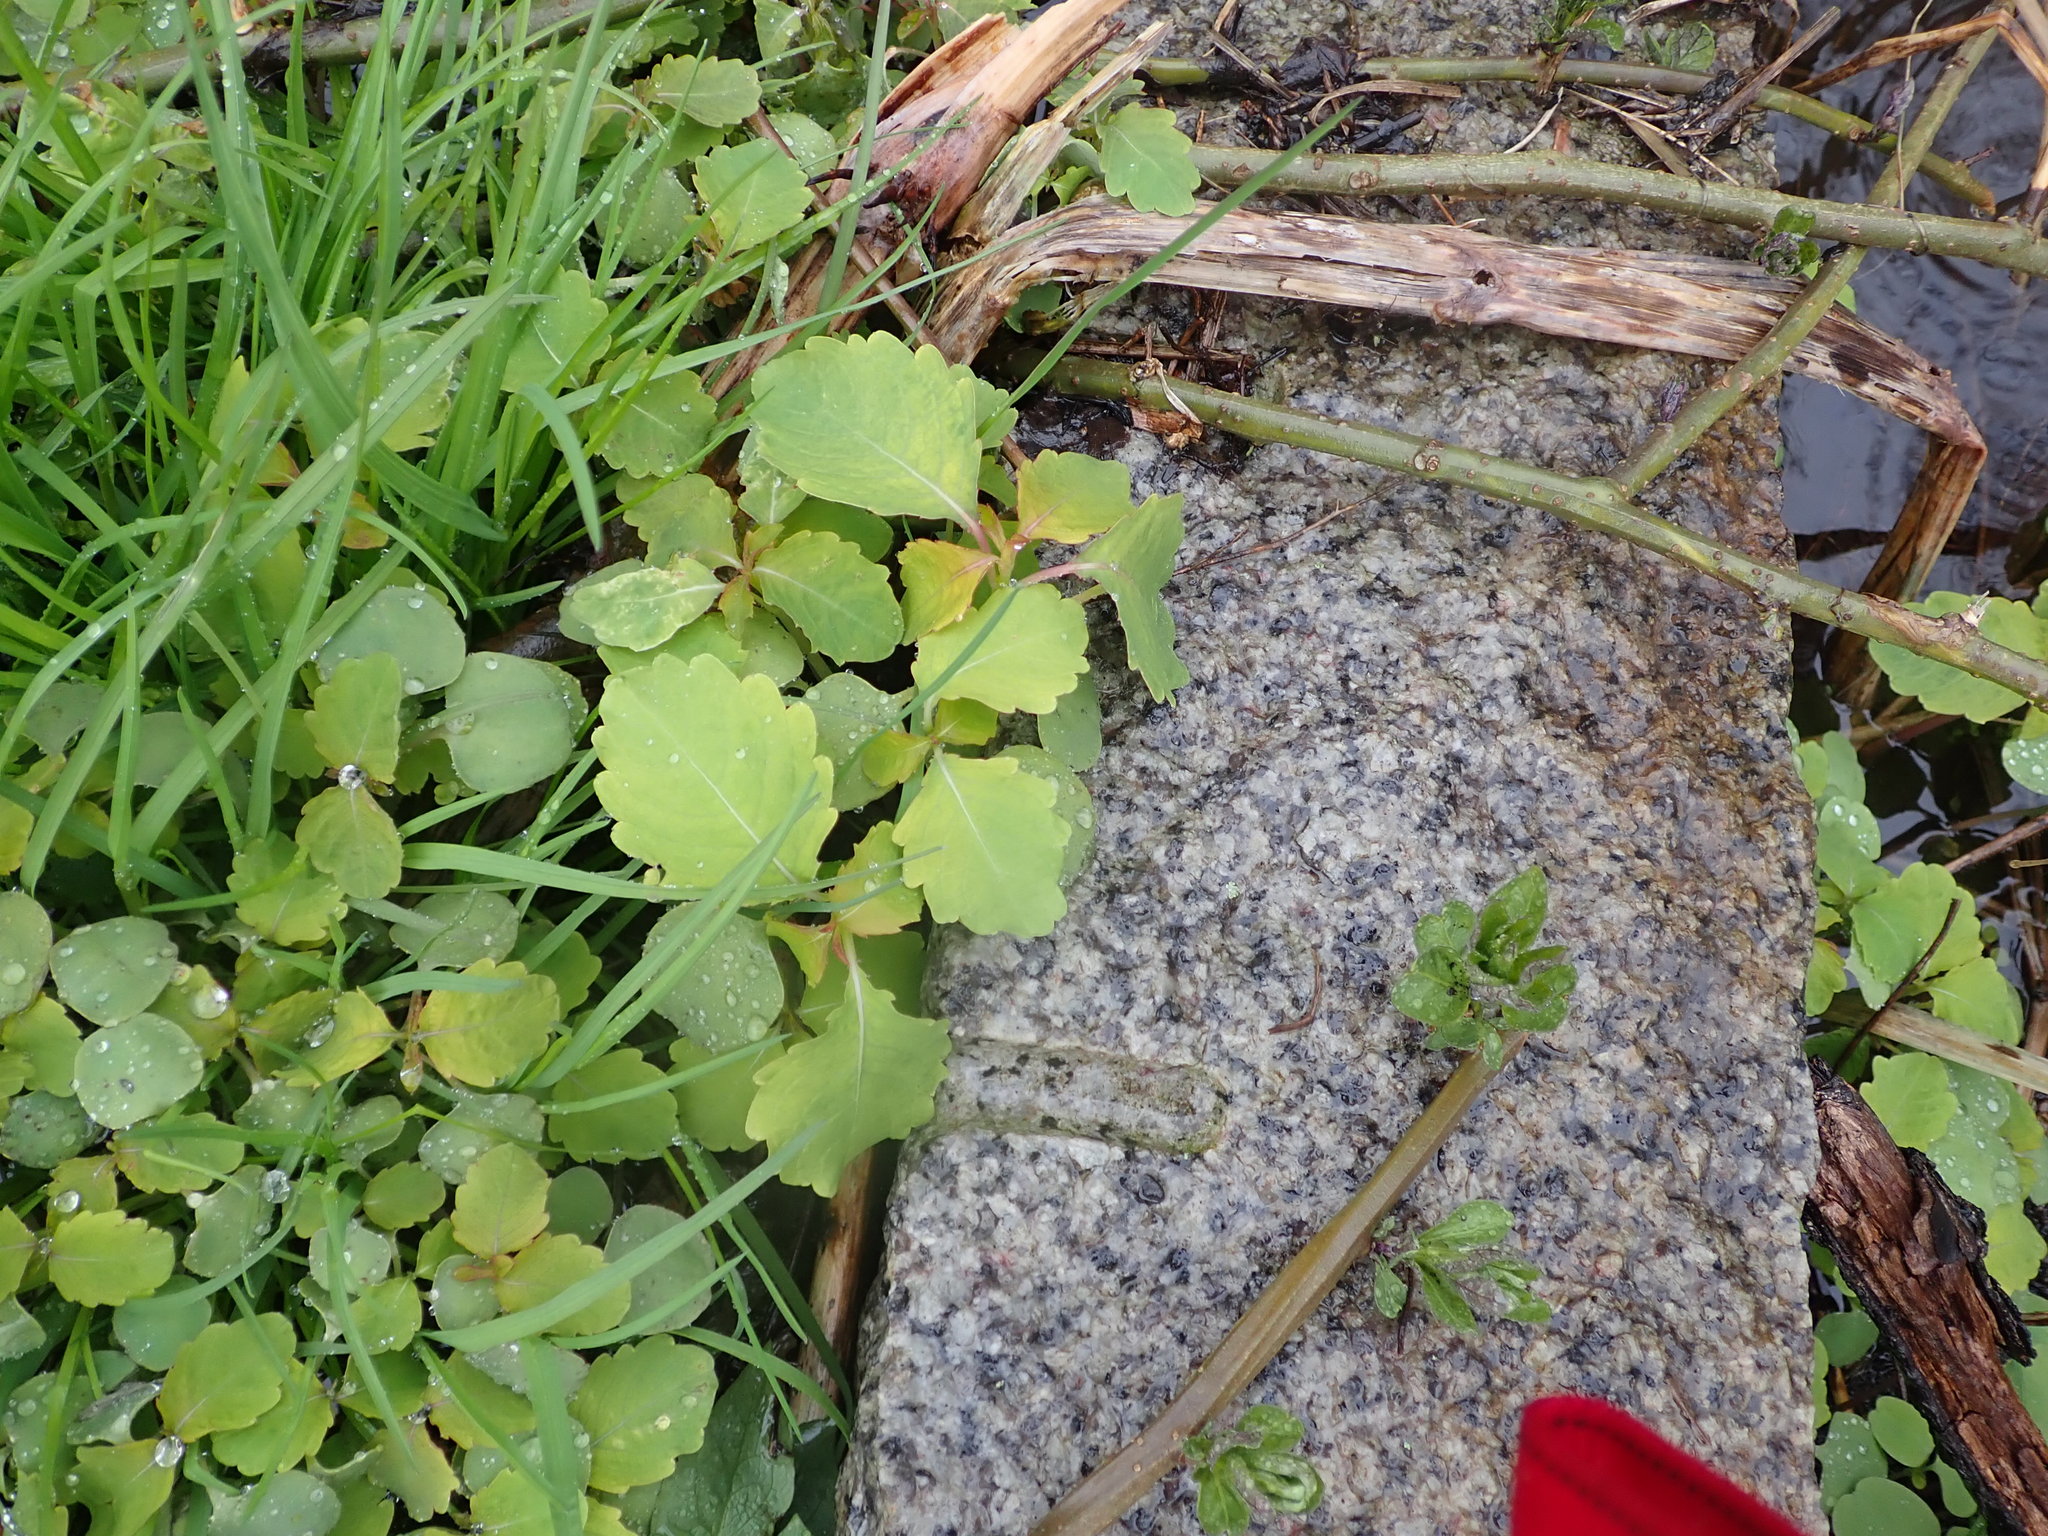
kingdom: Plantae
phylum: Tracheophyta
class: Magnoliopsida
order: Ericales
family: Balsaminaceae
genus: Impatiens
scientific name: Impatiens capensis
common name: Orange balsam
